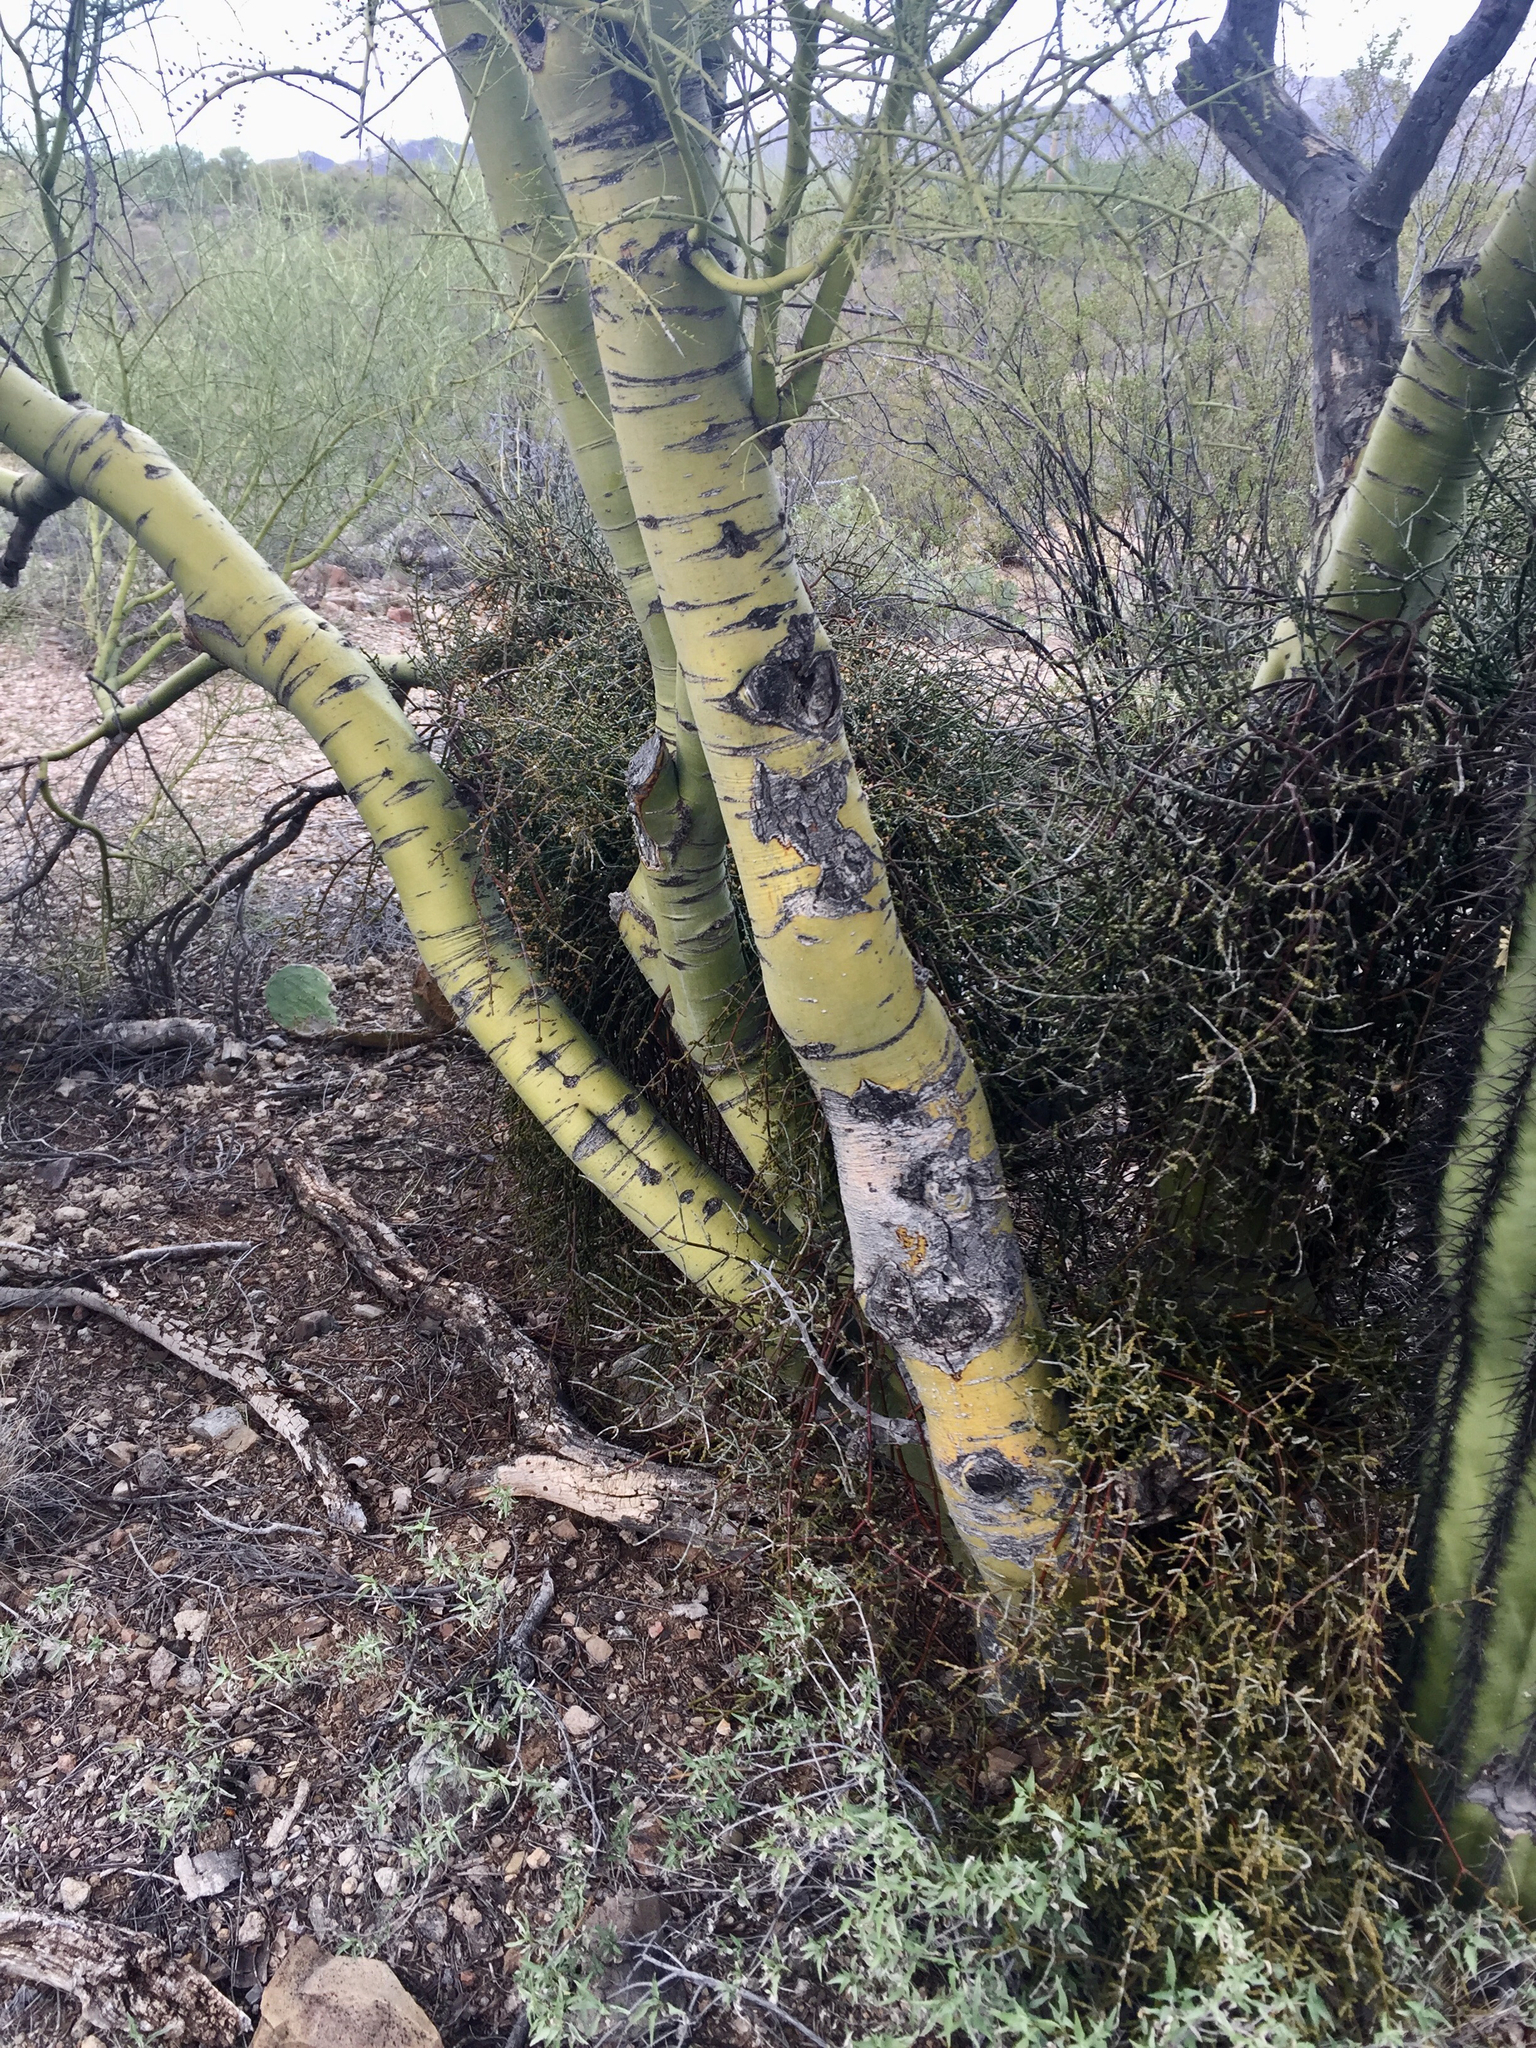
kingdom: Plantae
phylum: Tracheophyta
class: Magnoliopsida
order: Fabales
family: Fabaceae
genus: Parkinsonia
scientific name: Parkinsonia microphylla
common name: Yellow paloverde
